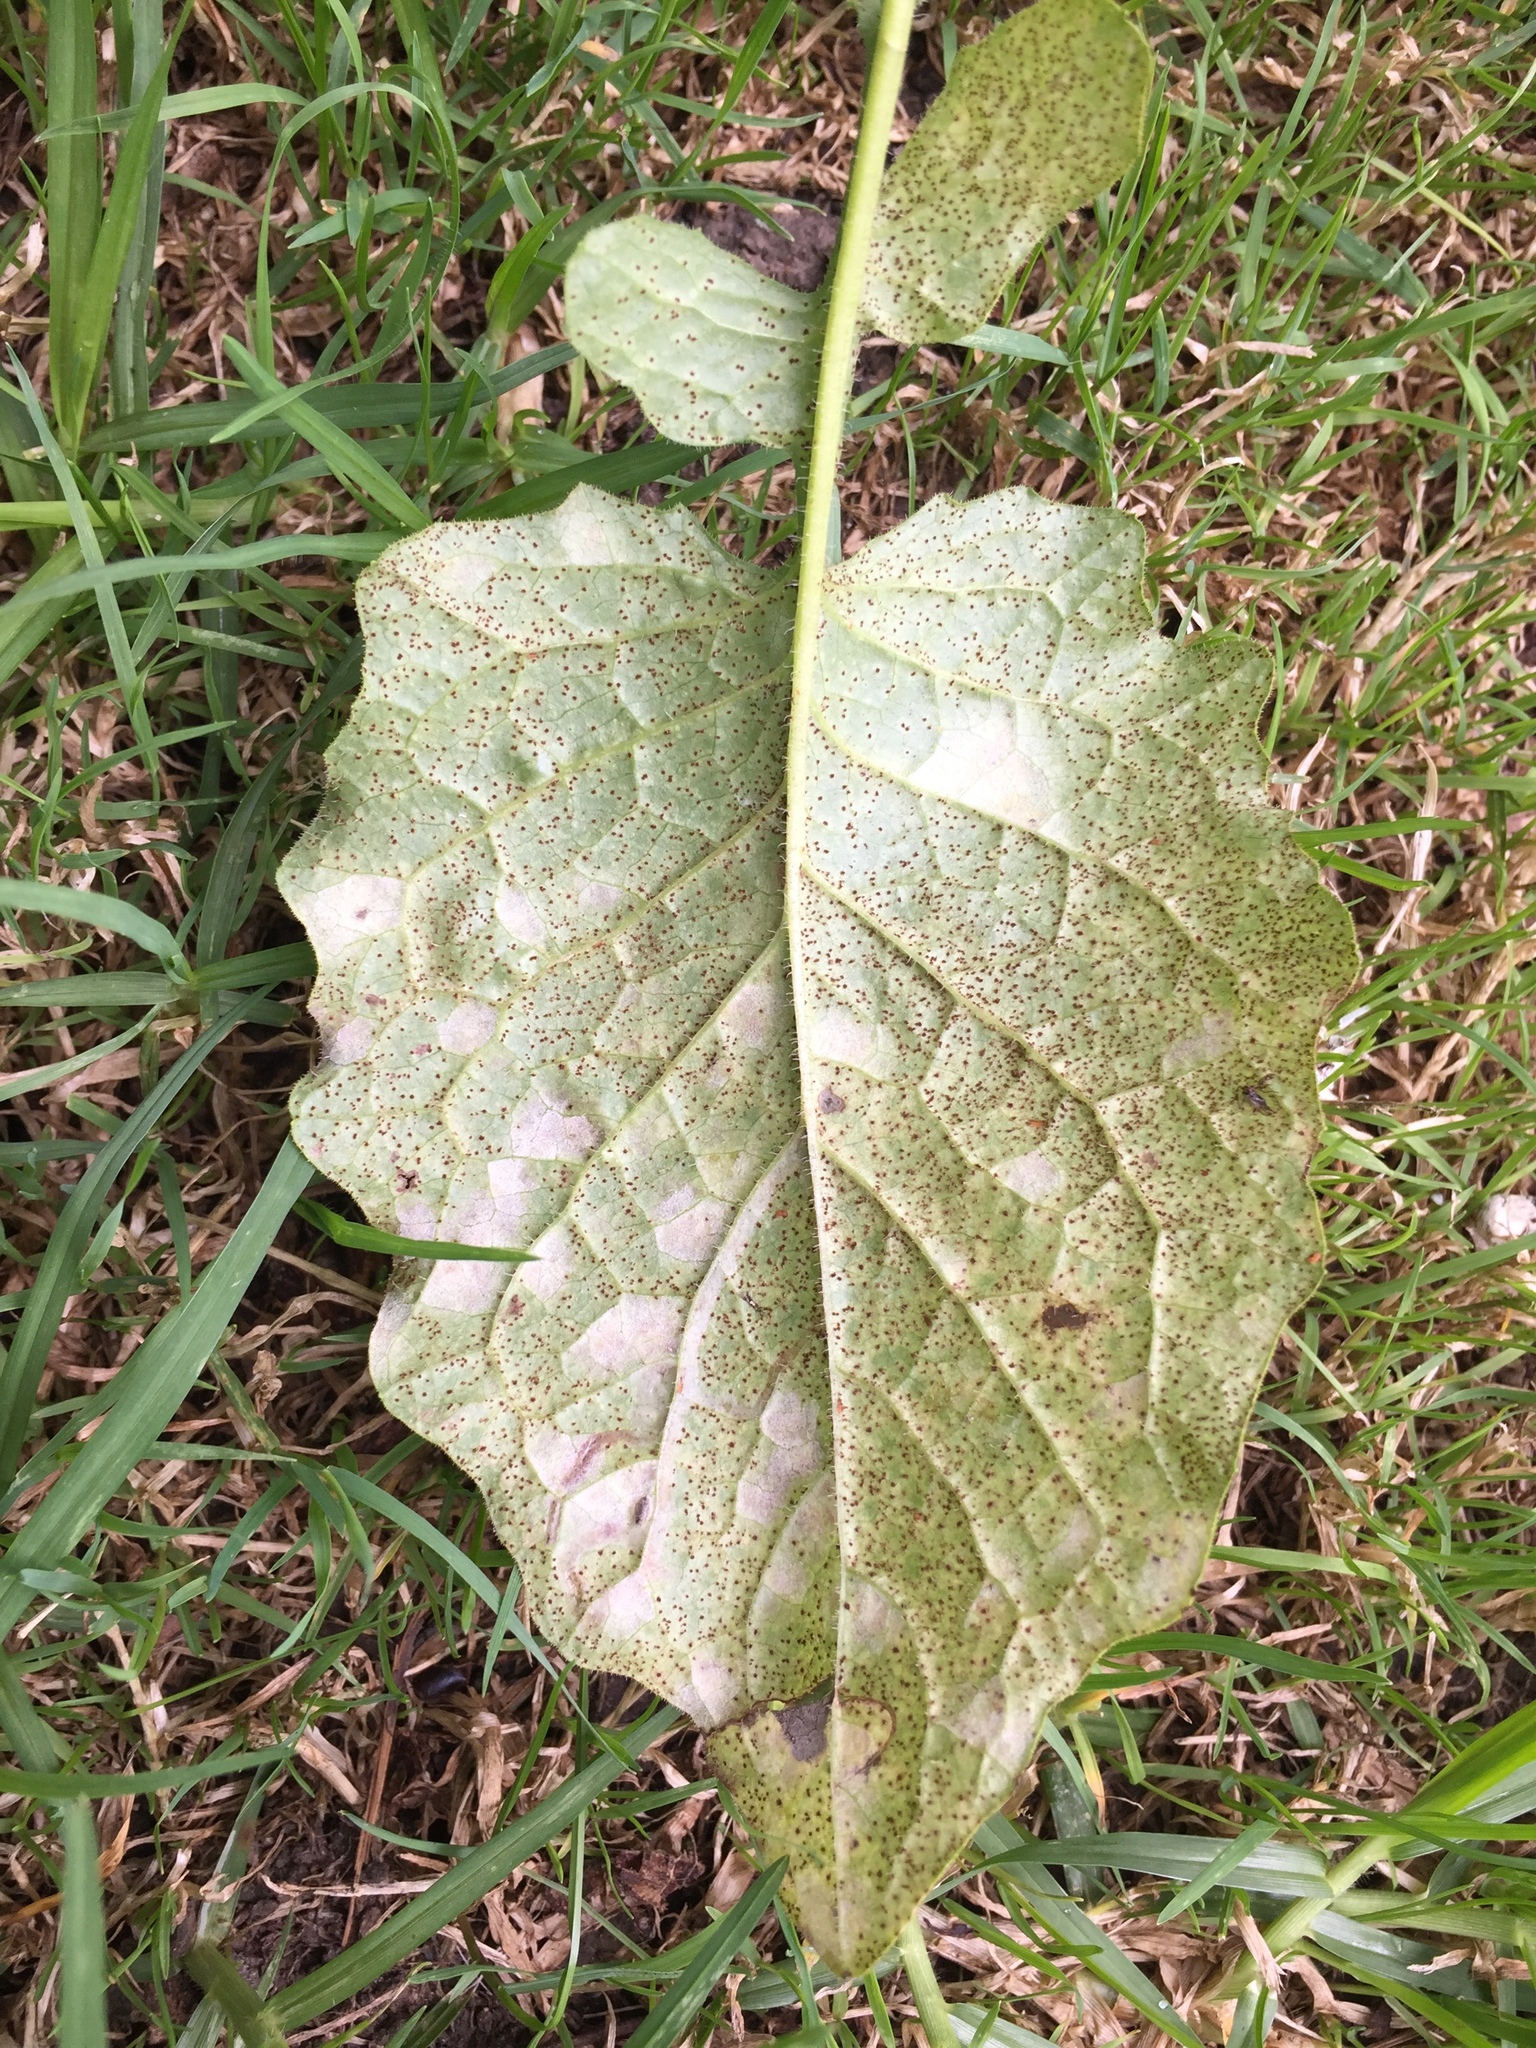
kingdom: Fungi
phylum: Ascomycota
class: Dothideomycetes
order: Mycosphaerellales
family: Mycosphaerellaceae
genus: Ramularia
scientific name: Ramularia lapsanae
